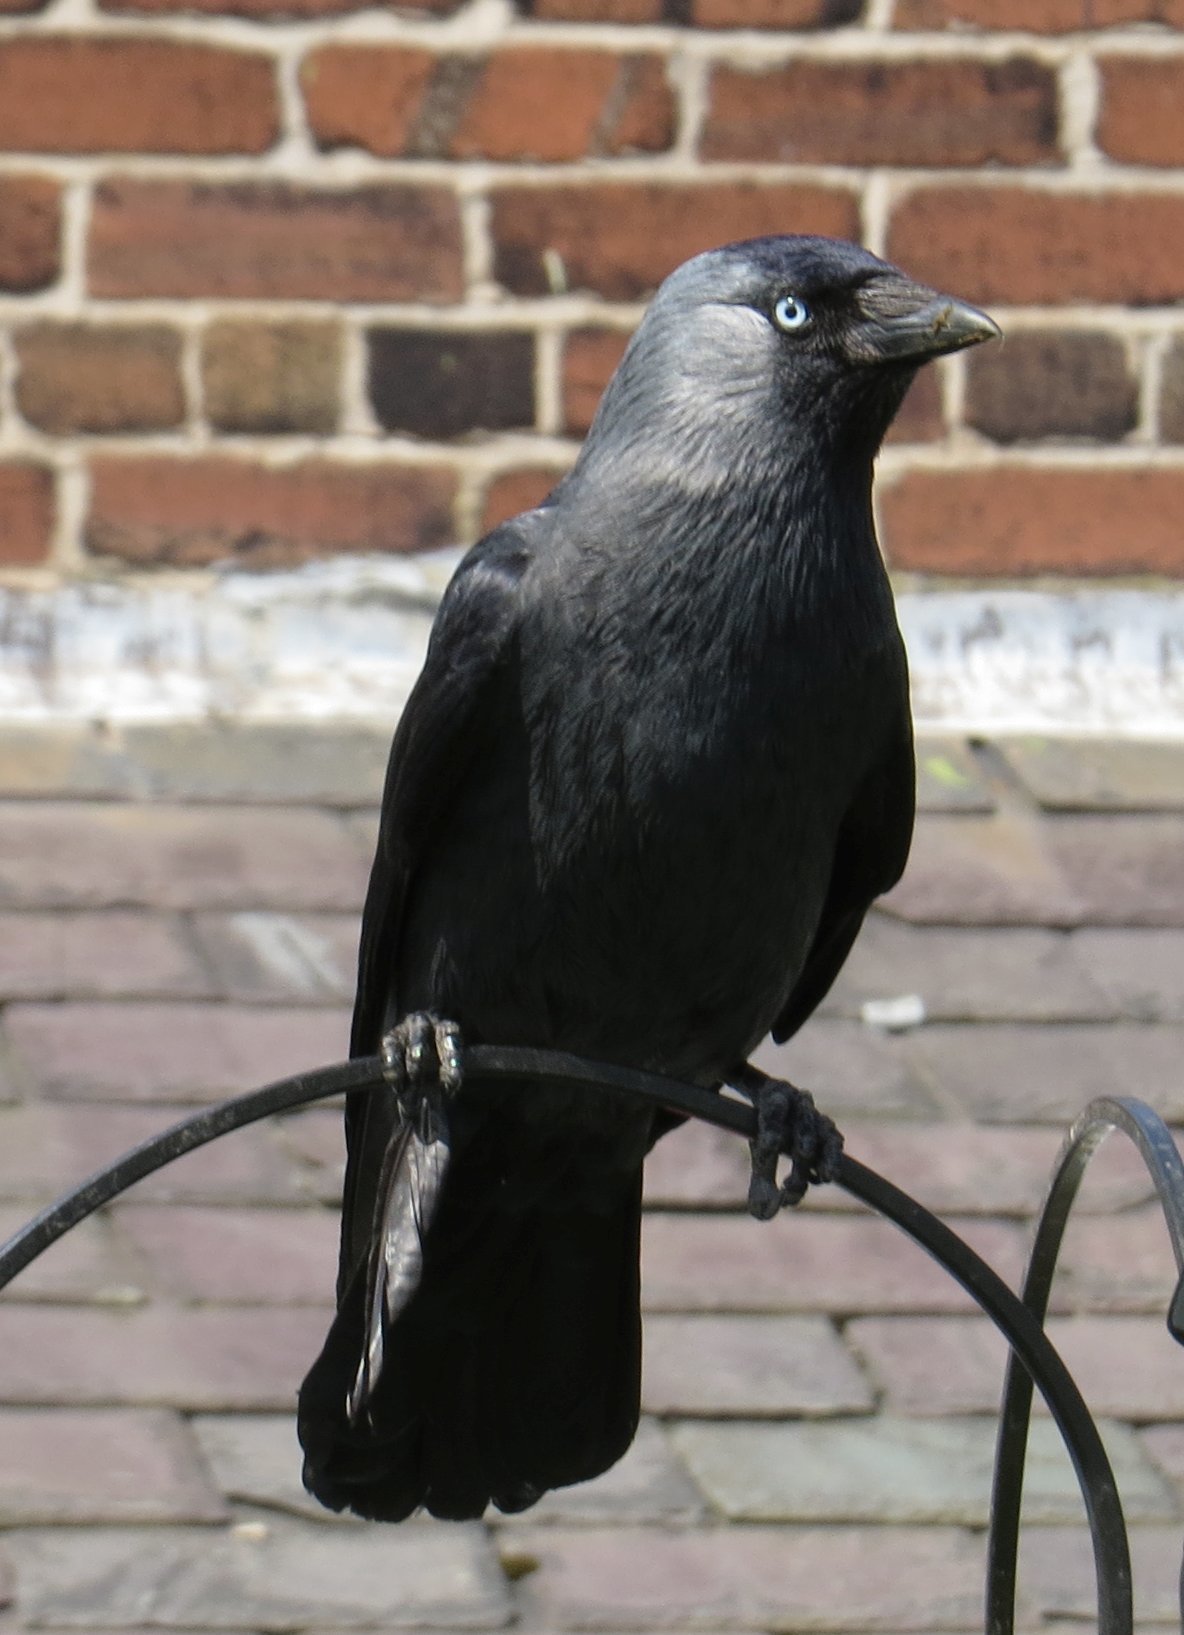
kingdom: Animalia
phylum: Chordata
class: Aves
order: Passeriformes
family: Corvidae
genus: Coloeus
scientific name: Coloeus monedula
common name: Western jackdaw
